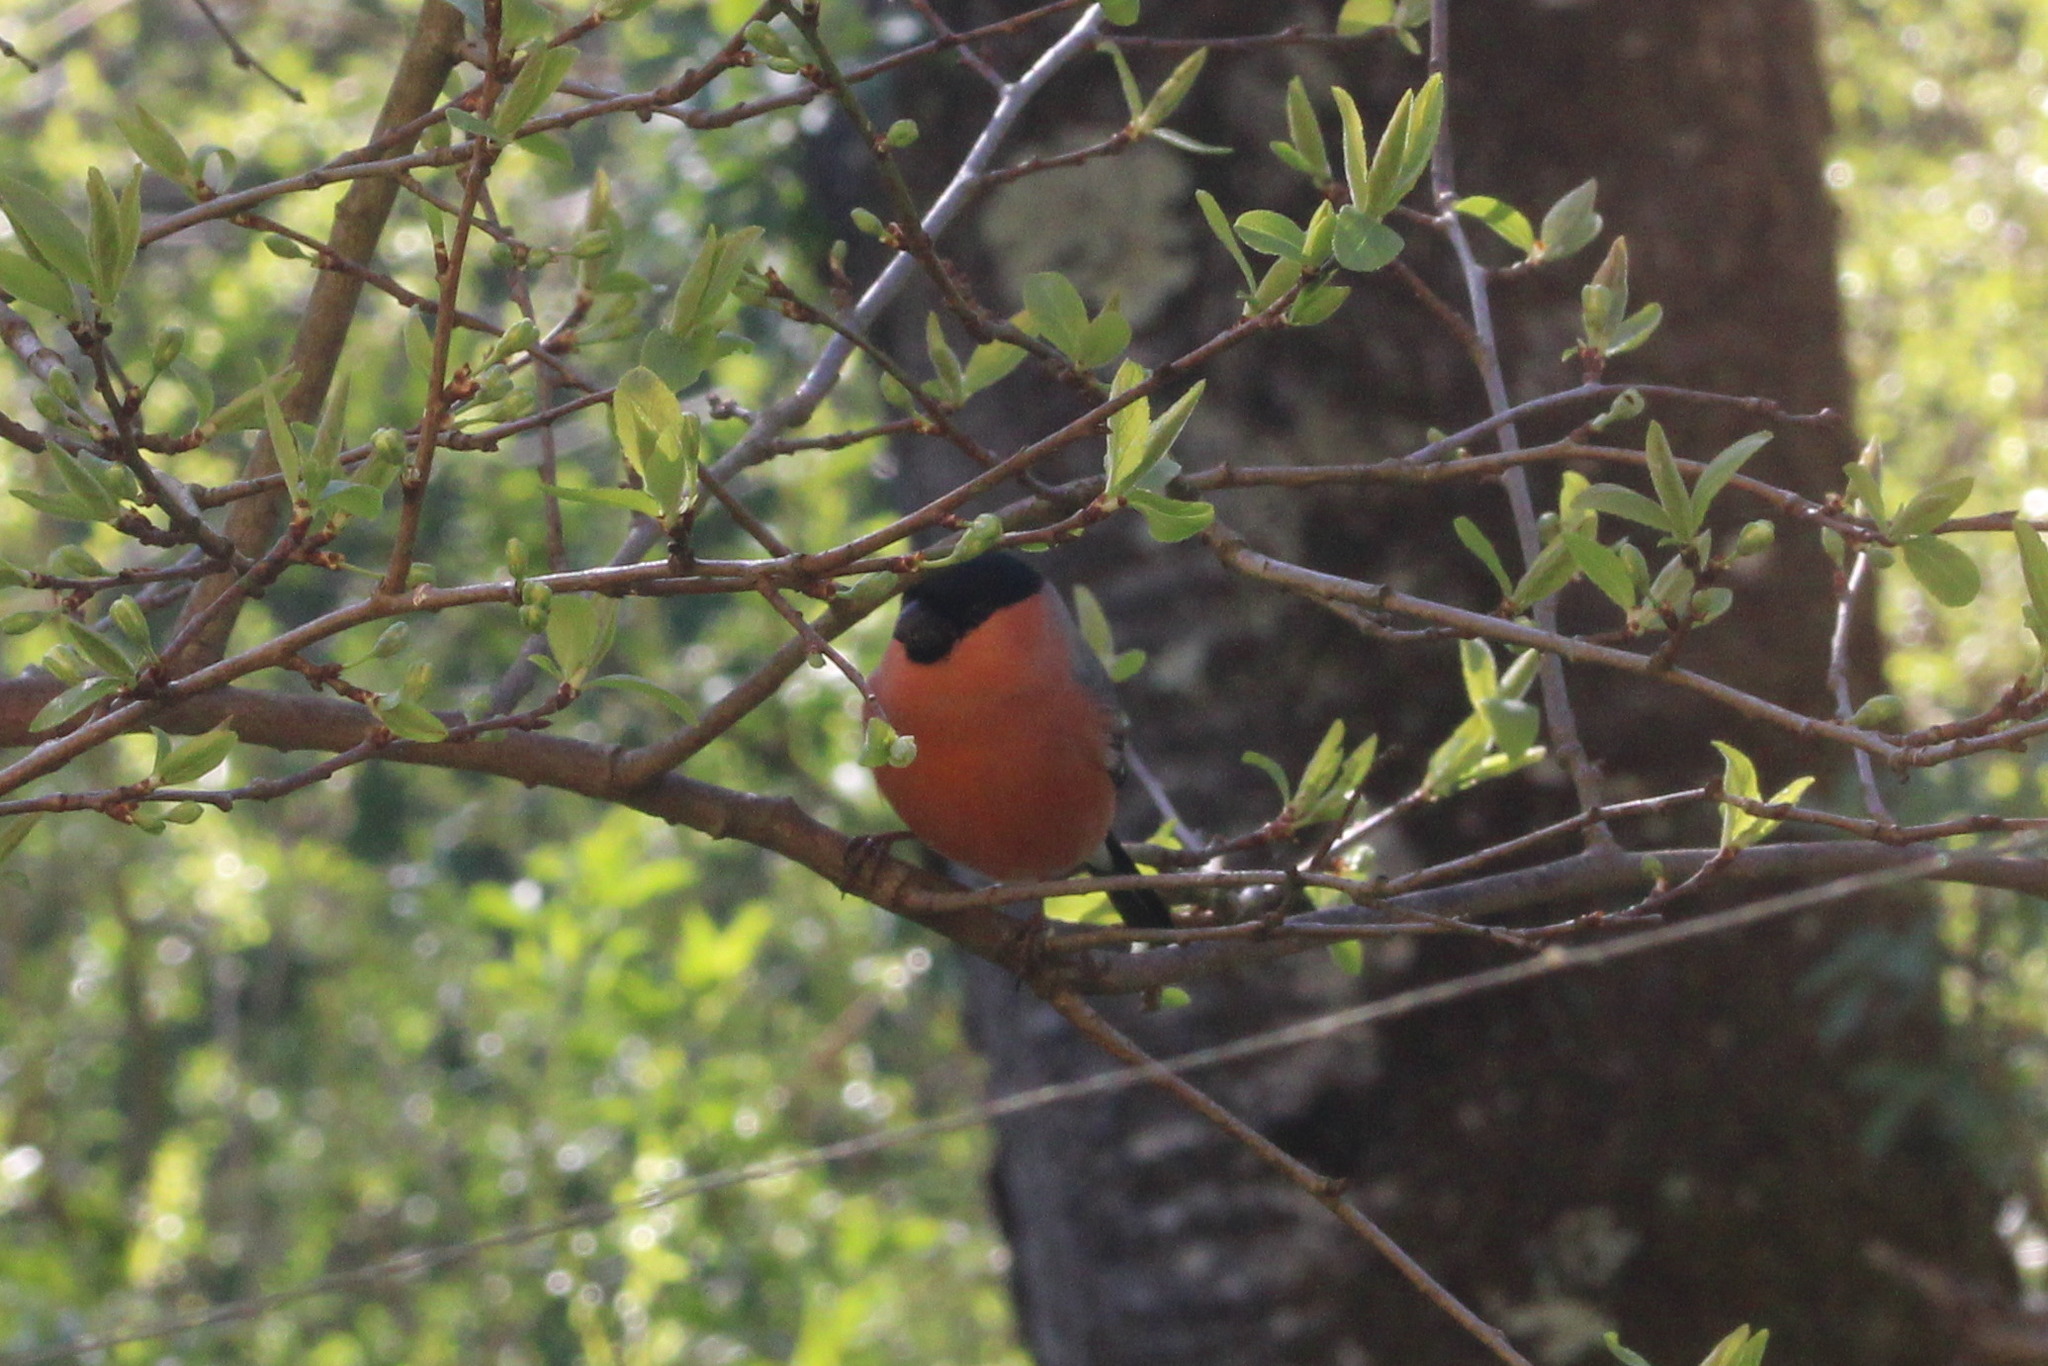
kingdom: Animalia
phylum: Chordata
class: Aves
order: Passeriformes
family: Fringillidae
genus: Pyrrhula
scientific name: Pyrrhula pyrrhula
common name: Eurasian bullfinch
